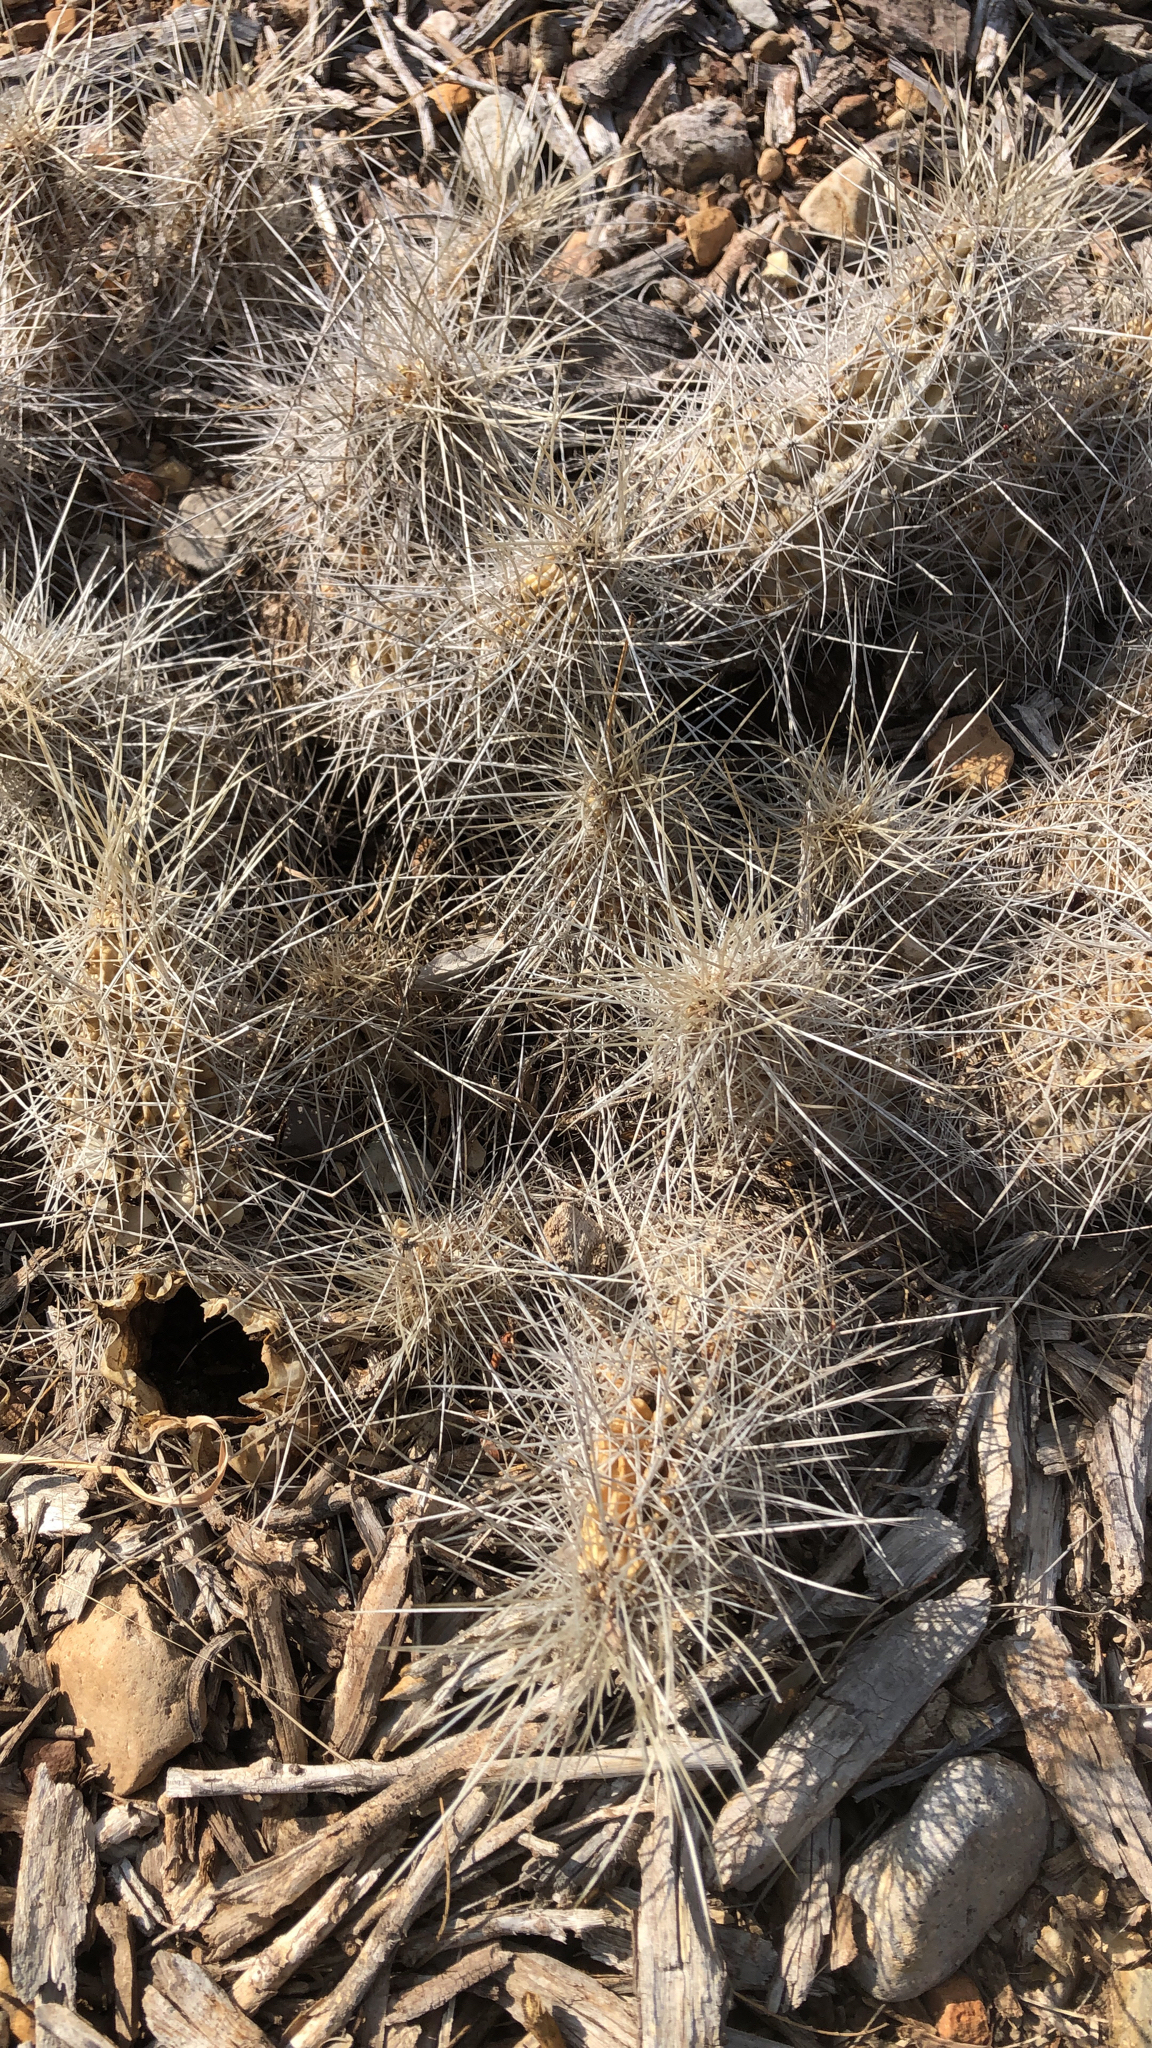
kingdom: Plantae
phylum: Tracheophyta
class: Magnoliopsida
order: Caryophyllales
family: Cactaceae
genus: Echinocereus
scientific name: Echinocereus enneacanthus
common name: Pitaya
